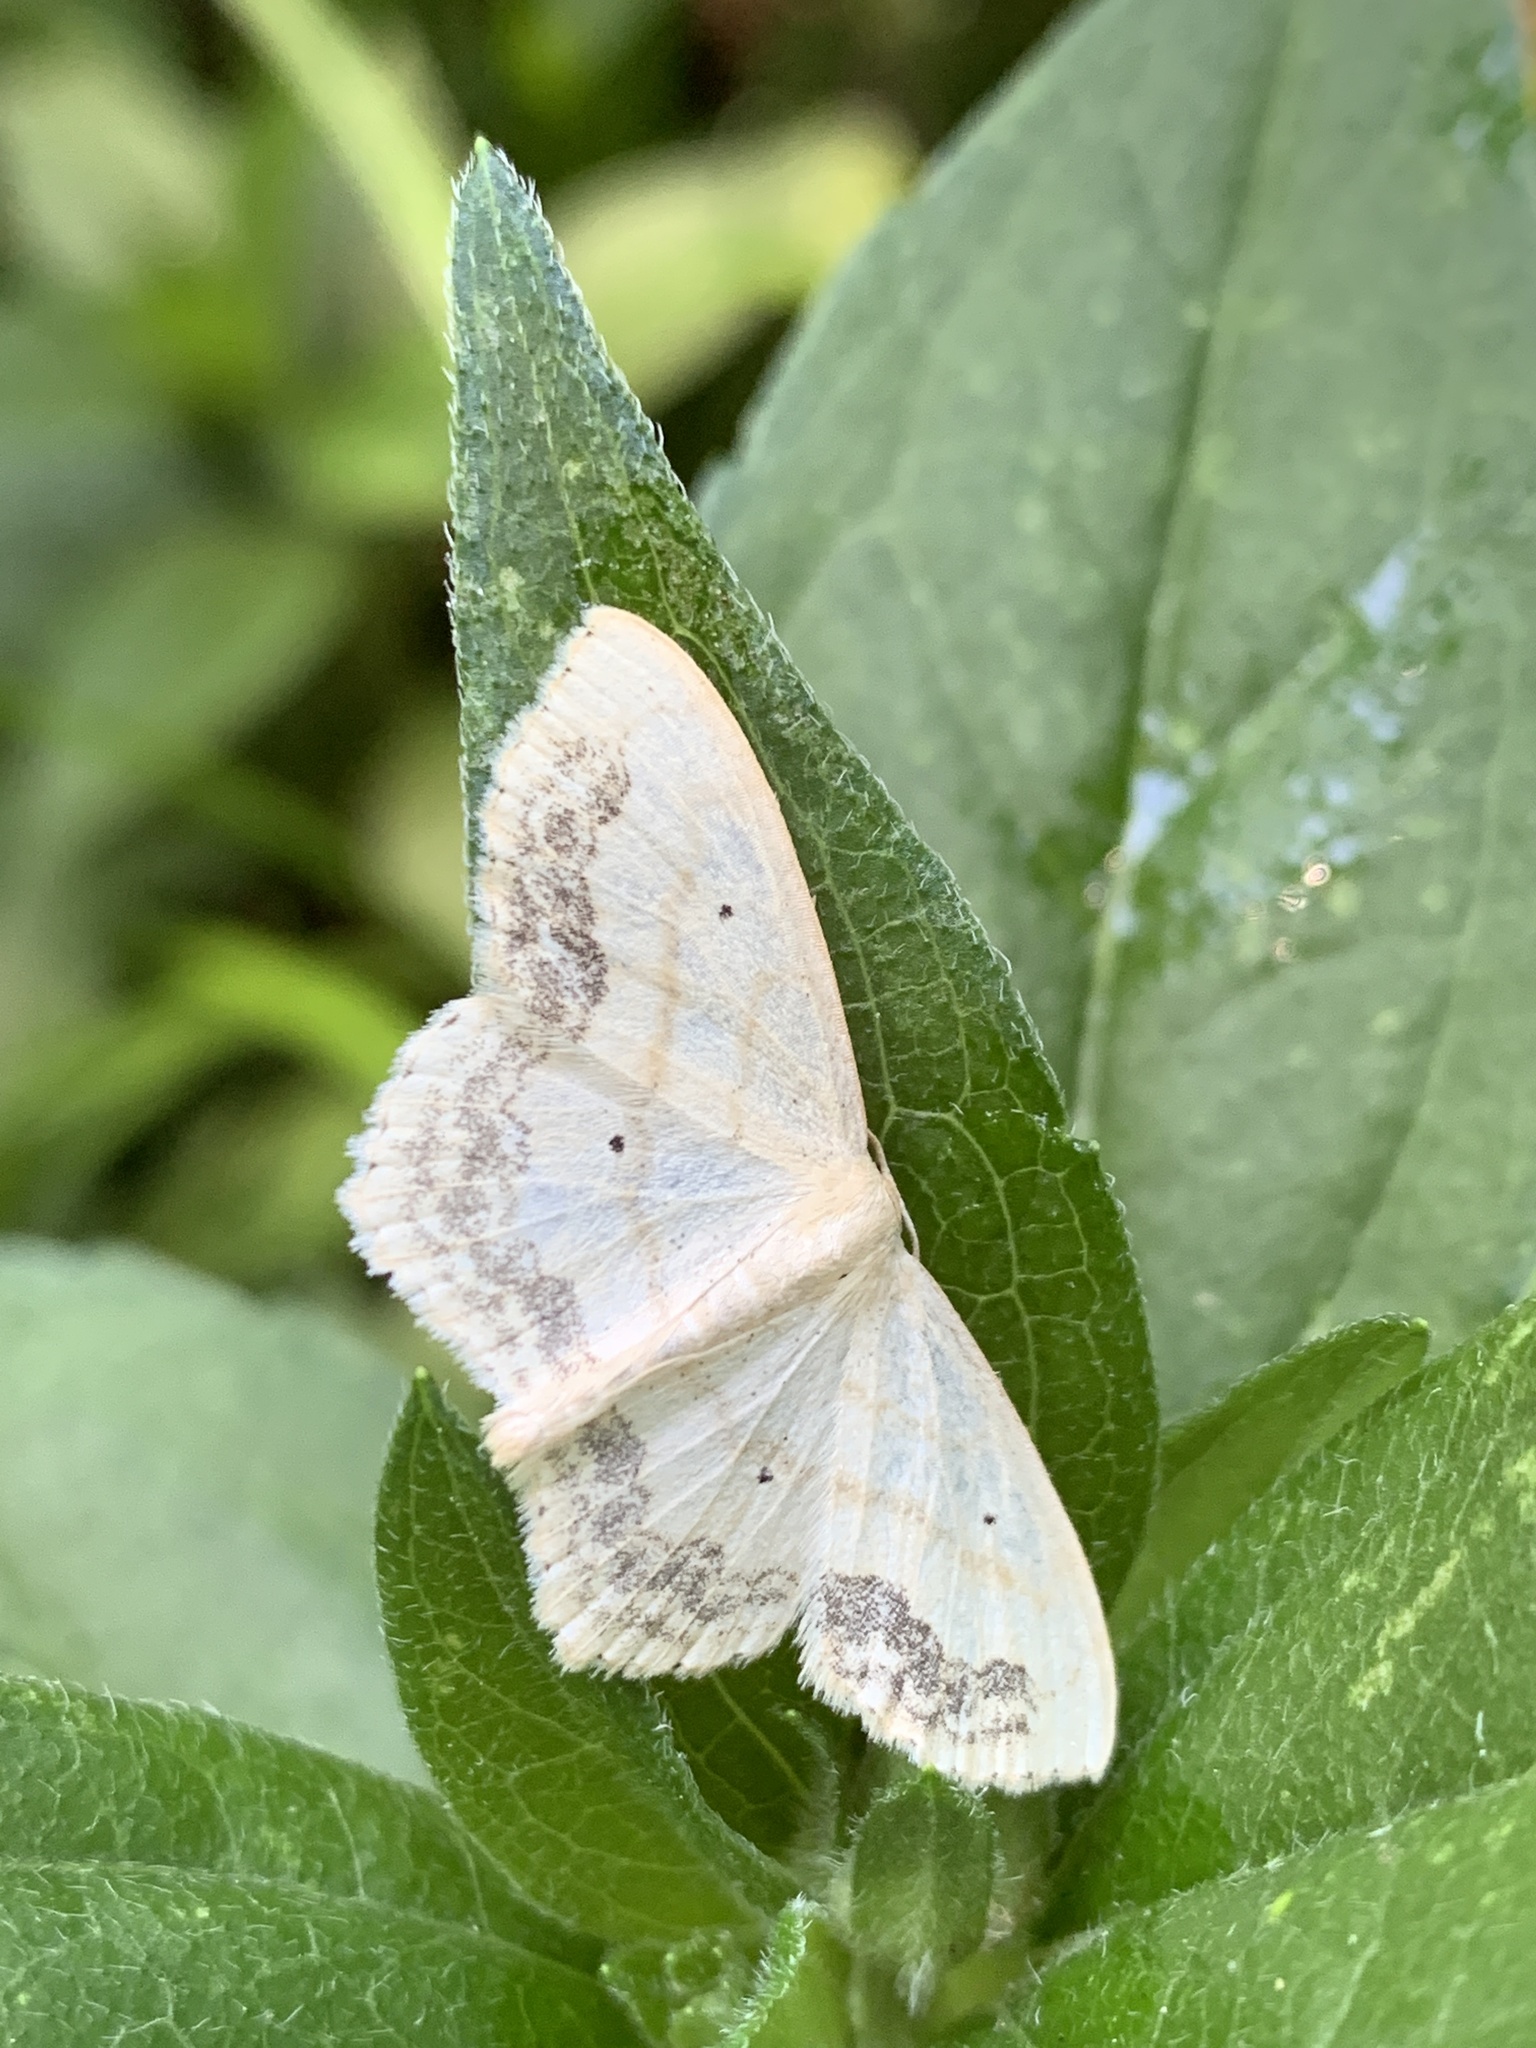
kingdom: Animalia
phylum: Arthropoda
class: Insecta
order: Lepidoptera
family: Geometridae
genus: Scopula
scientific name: Scopula limboundata
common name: Large lace border
